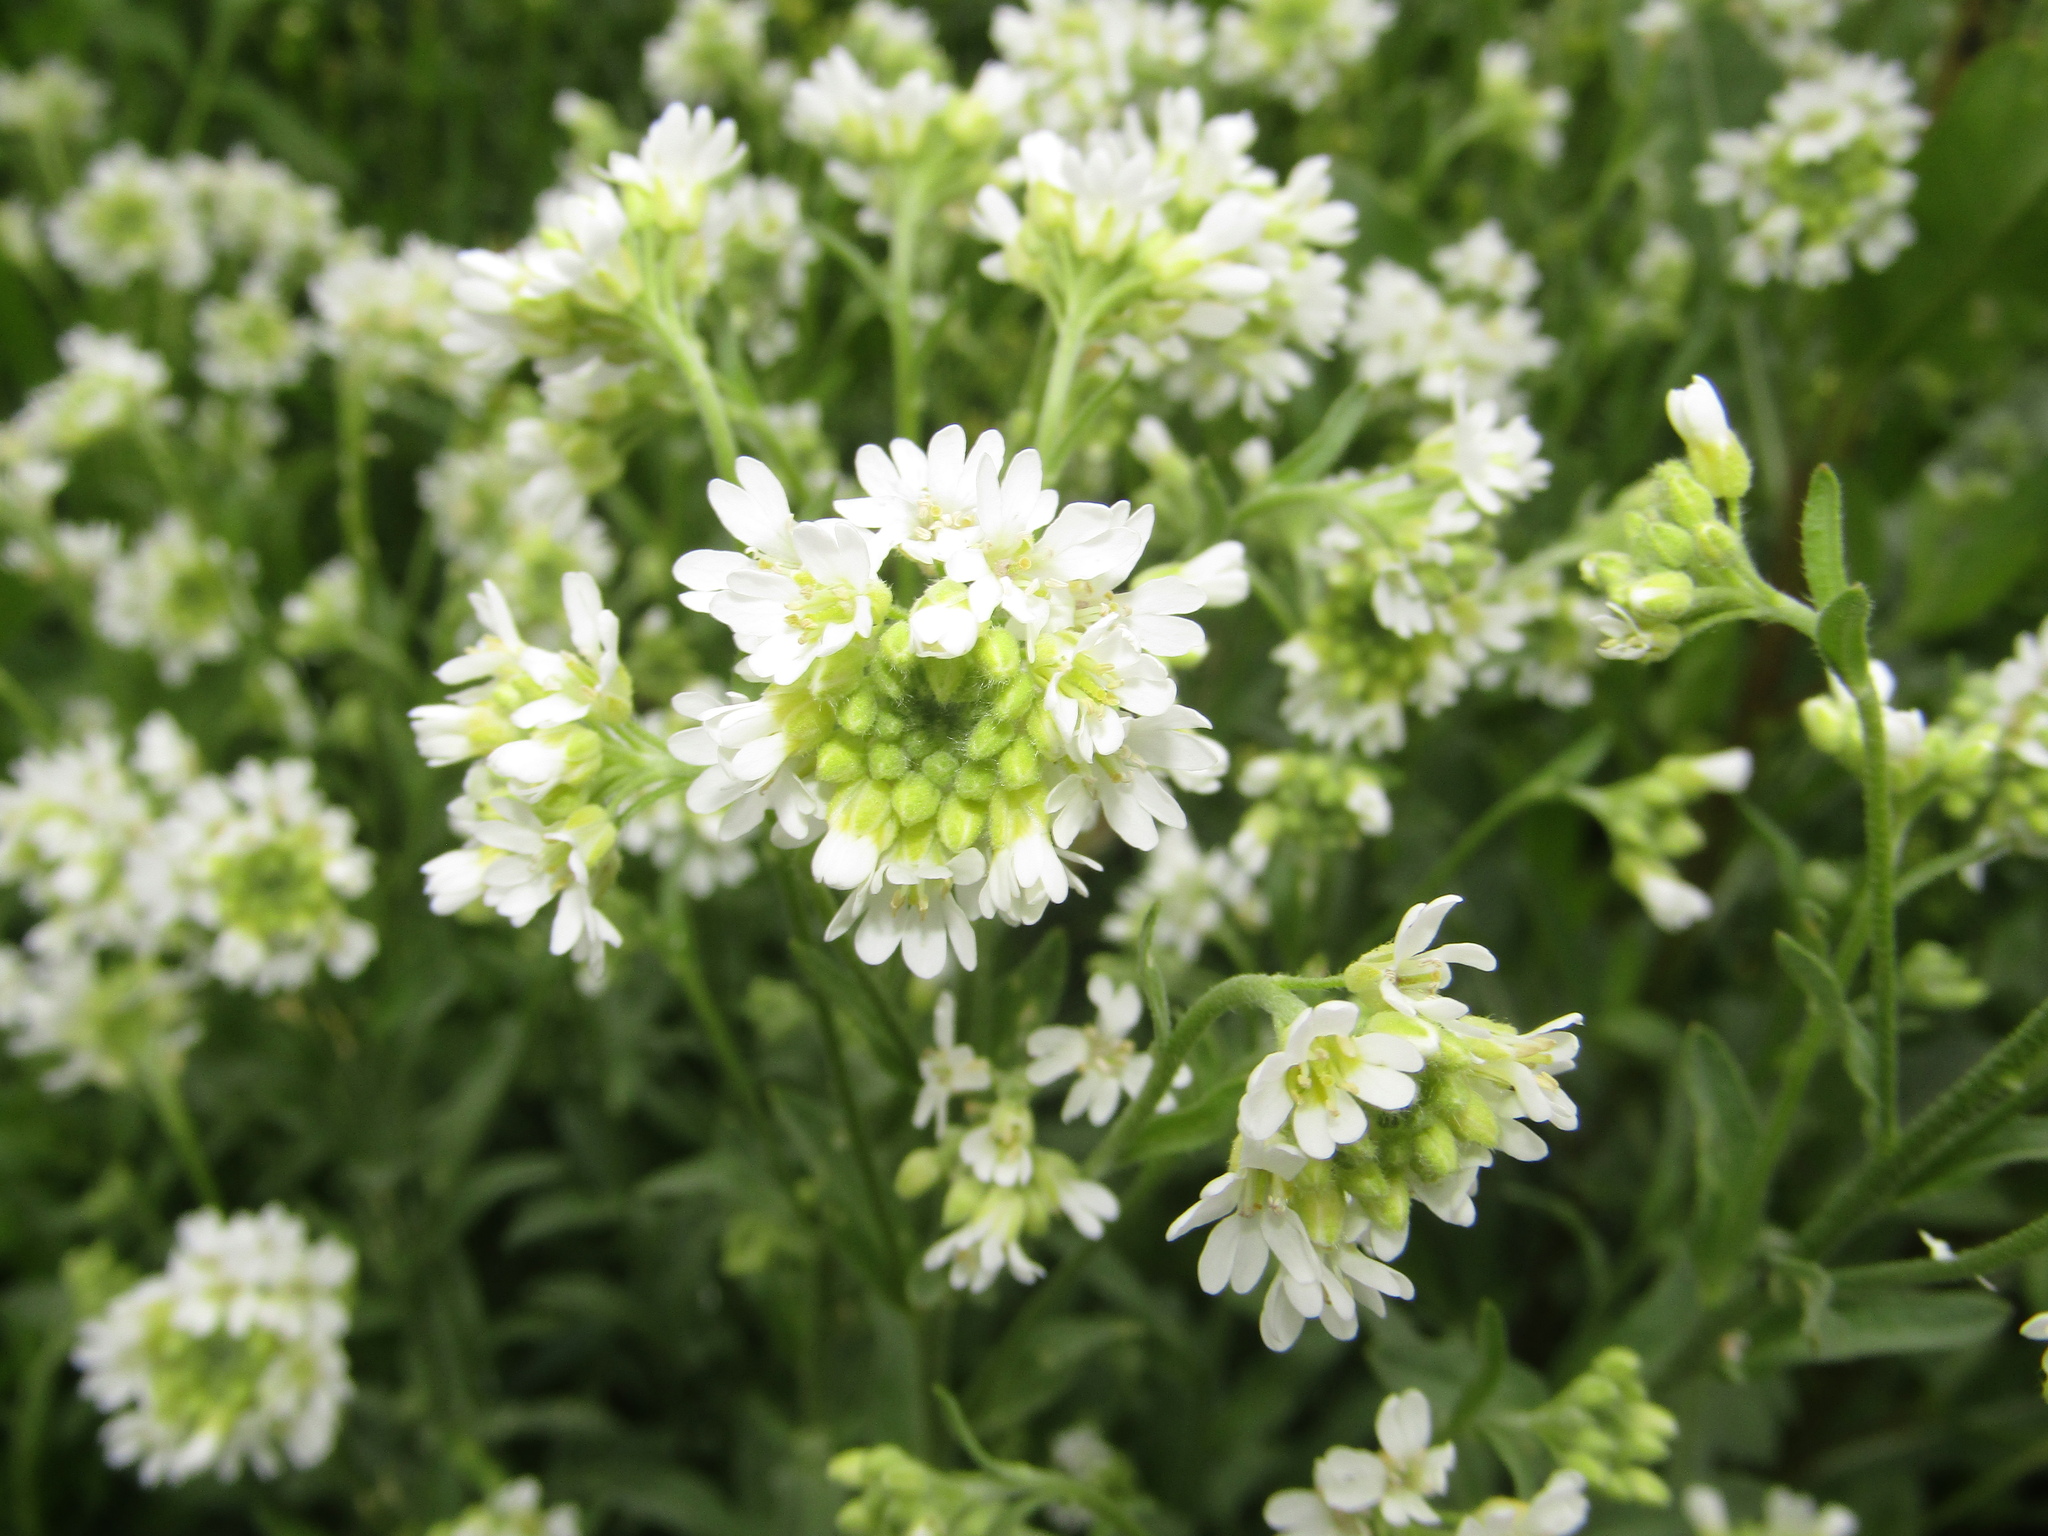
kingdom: Plantae
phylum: Tracheophyta
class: Magnoliopsida
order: Brassicales
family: Brassicaceae
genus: Berteroa
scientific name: Berteroa incana
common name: Hoary alison
